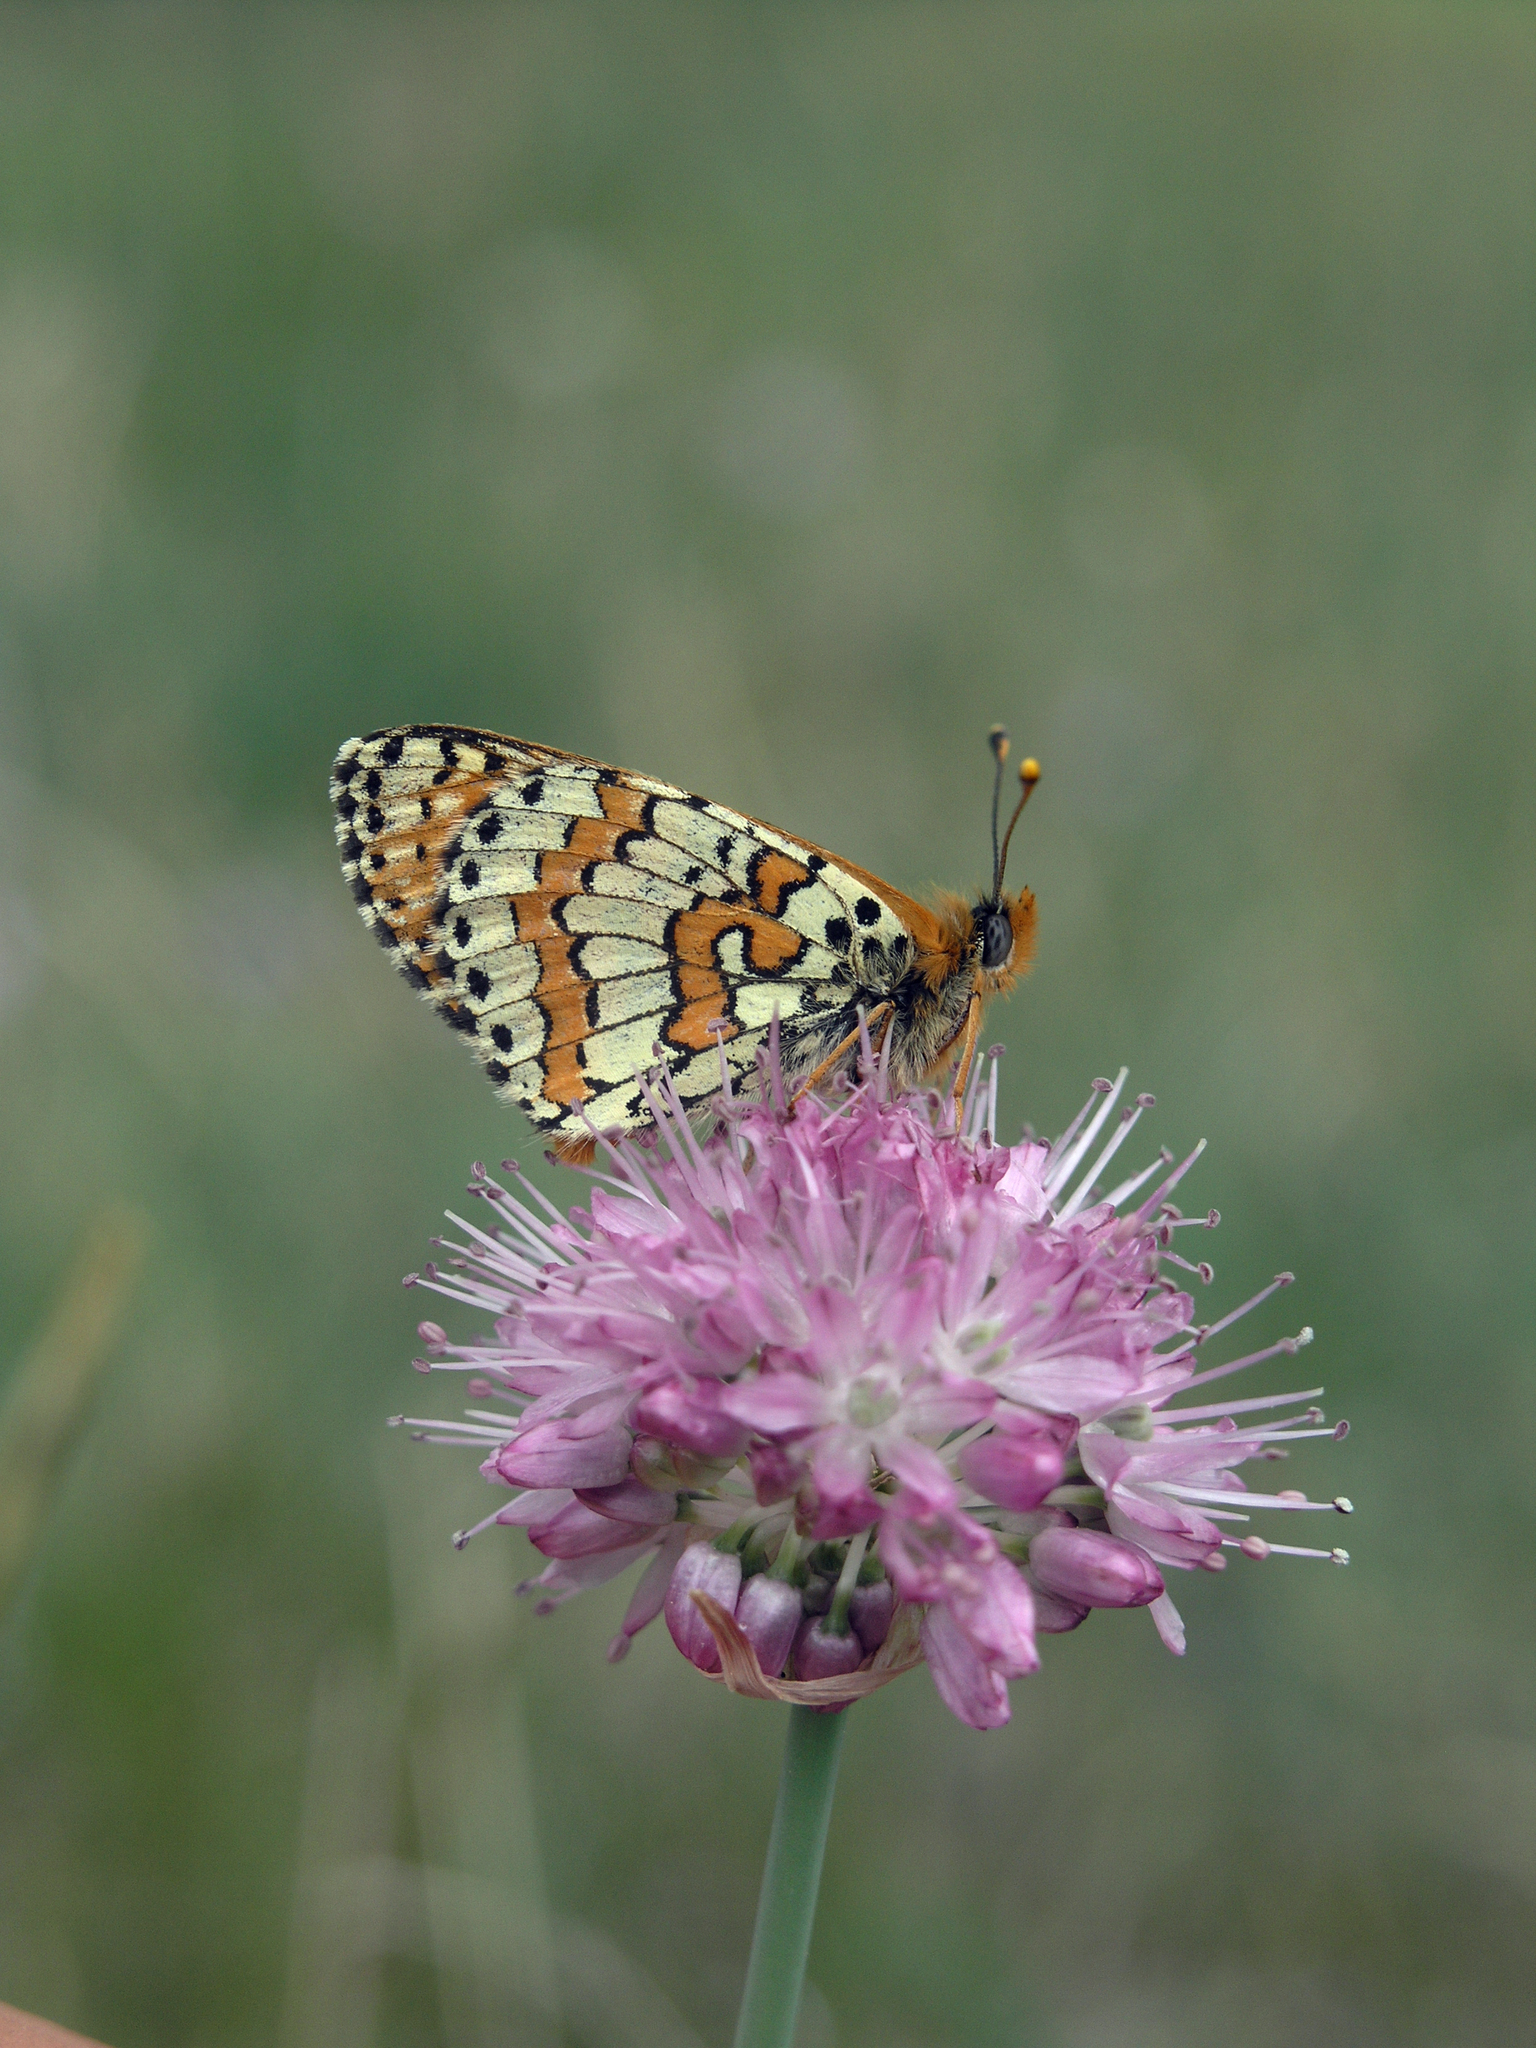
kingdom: Animalia
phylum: Arthropoda
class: Insecta
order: Lepidoptera
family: Nymphalidae
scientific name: Nymphalidae
